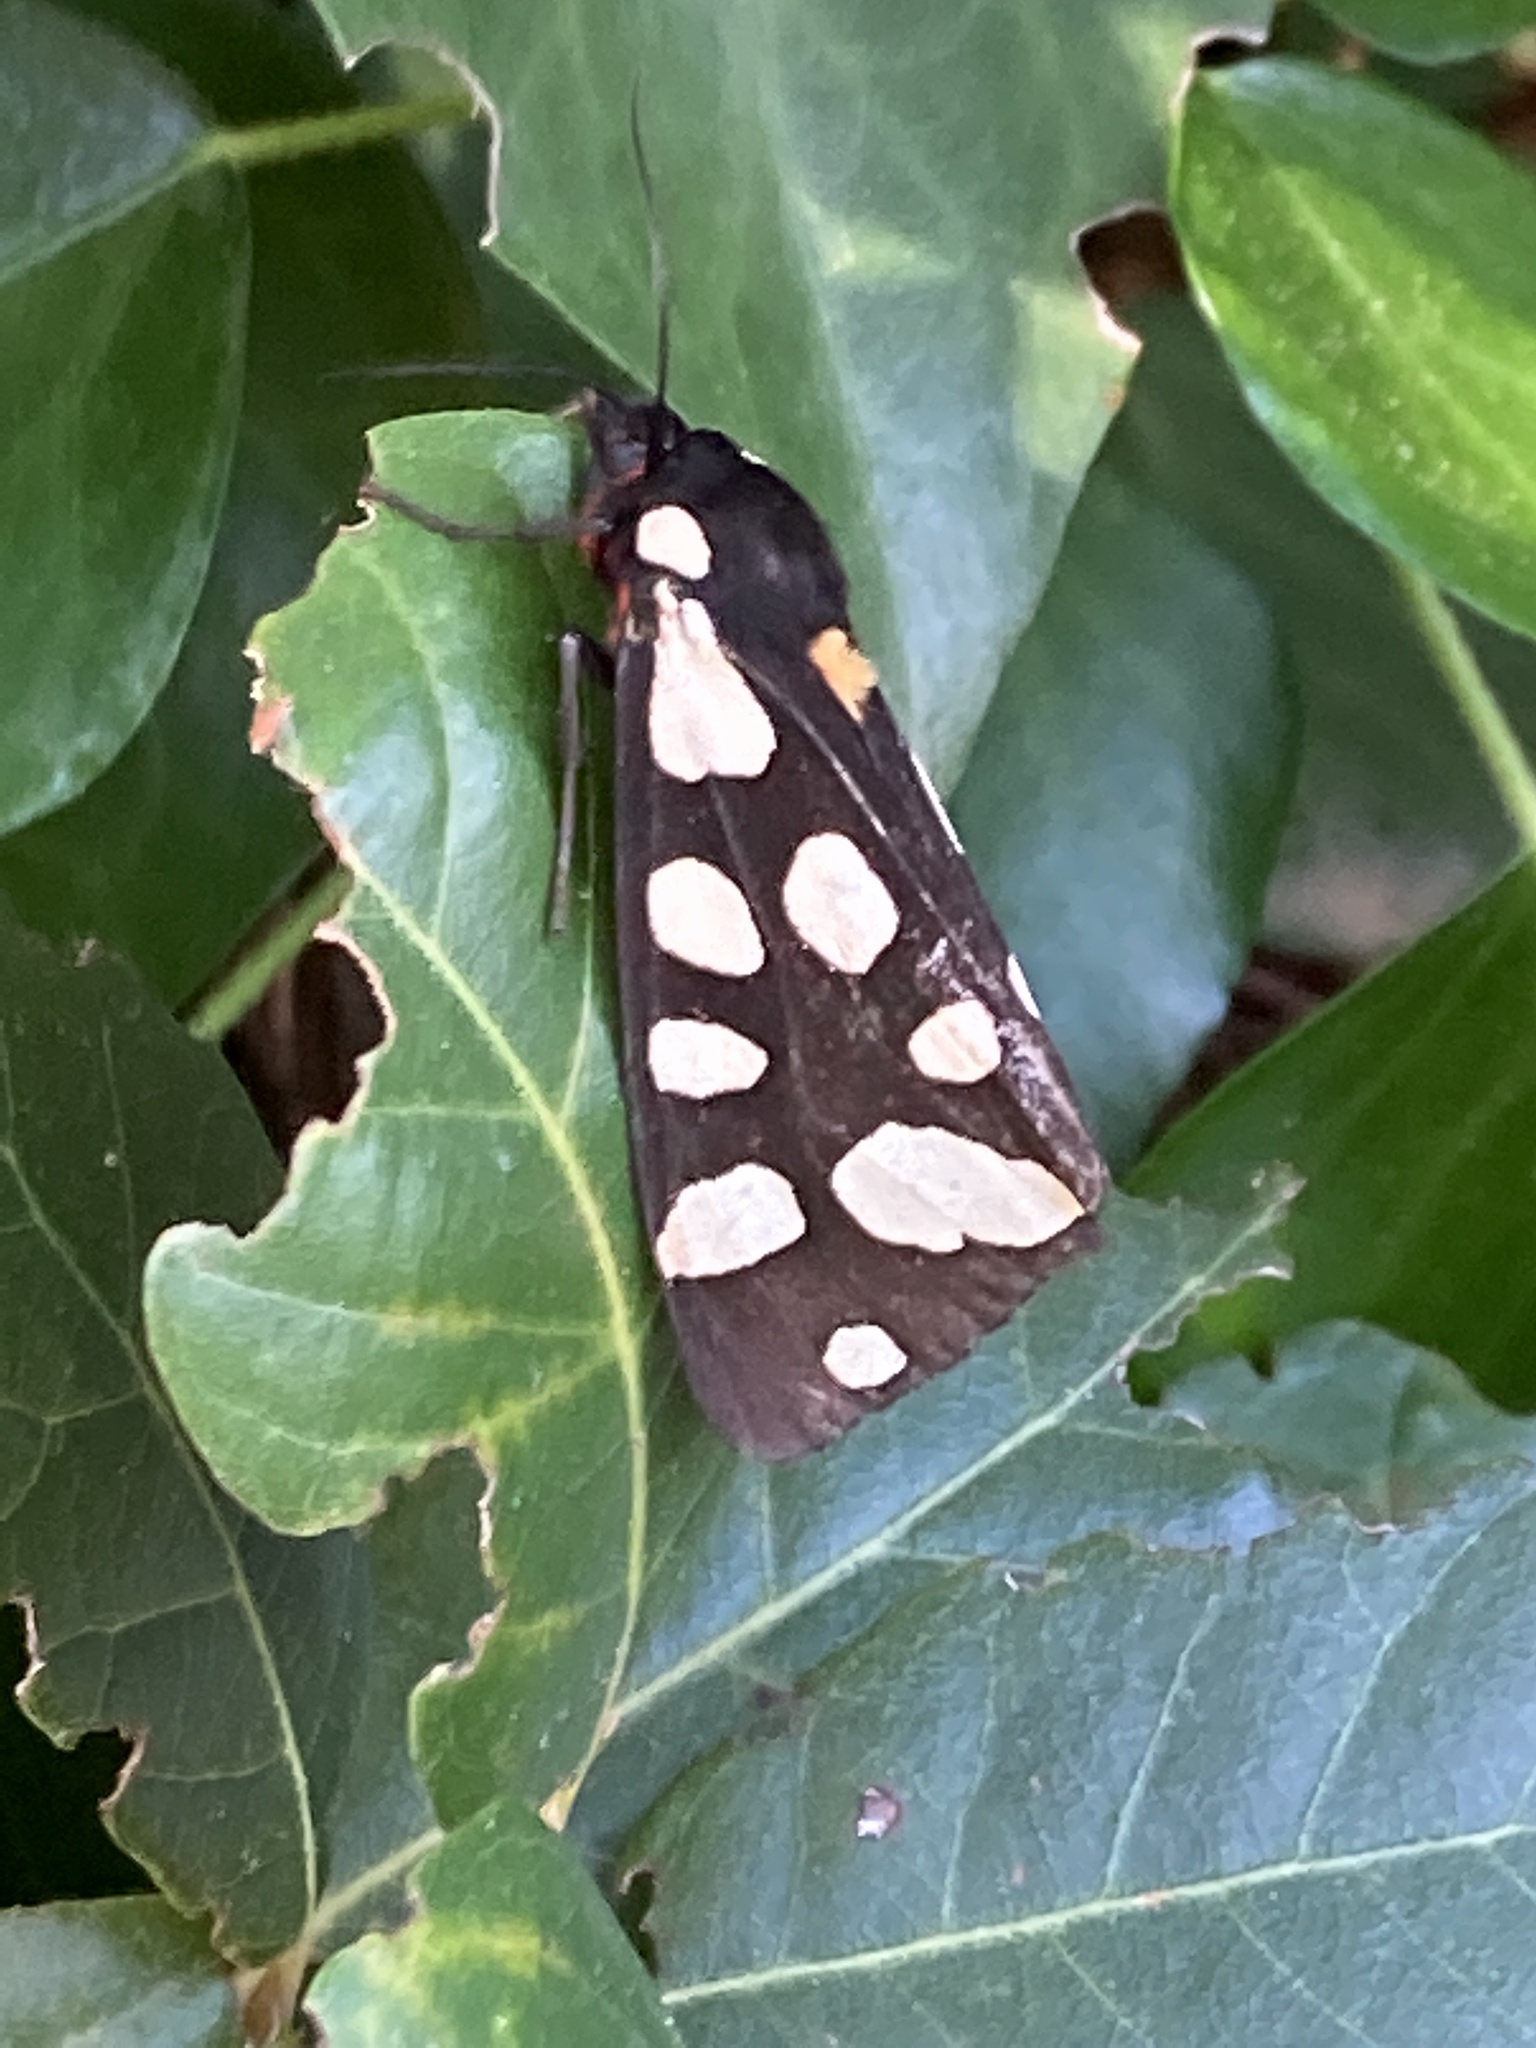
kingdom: Animalia
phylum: Arthropoda
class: Insecta
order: Lepidoptera
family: Erebidae
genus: Epicallia
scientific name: Epicallia villica
